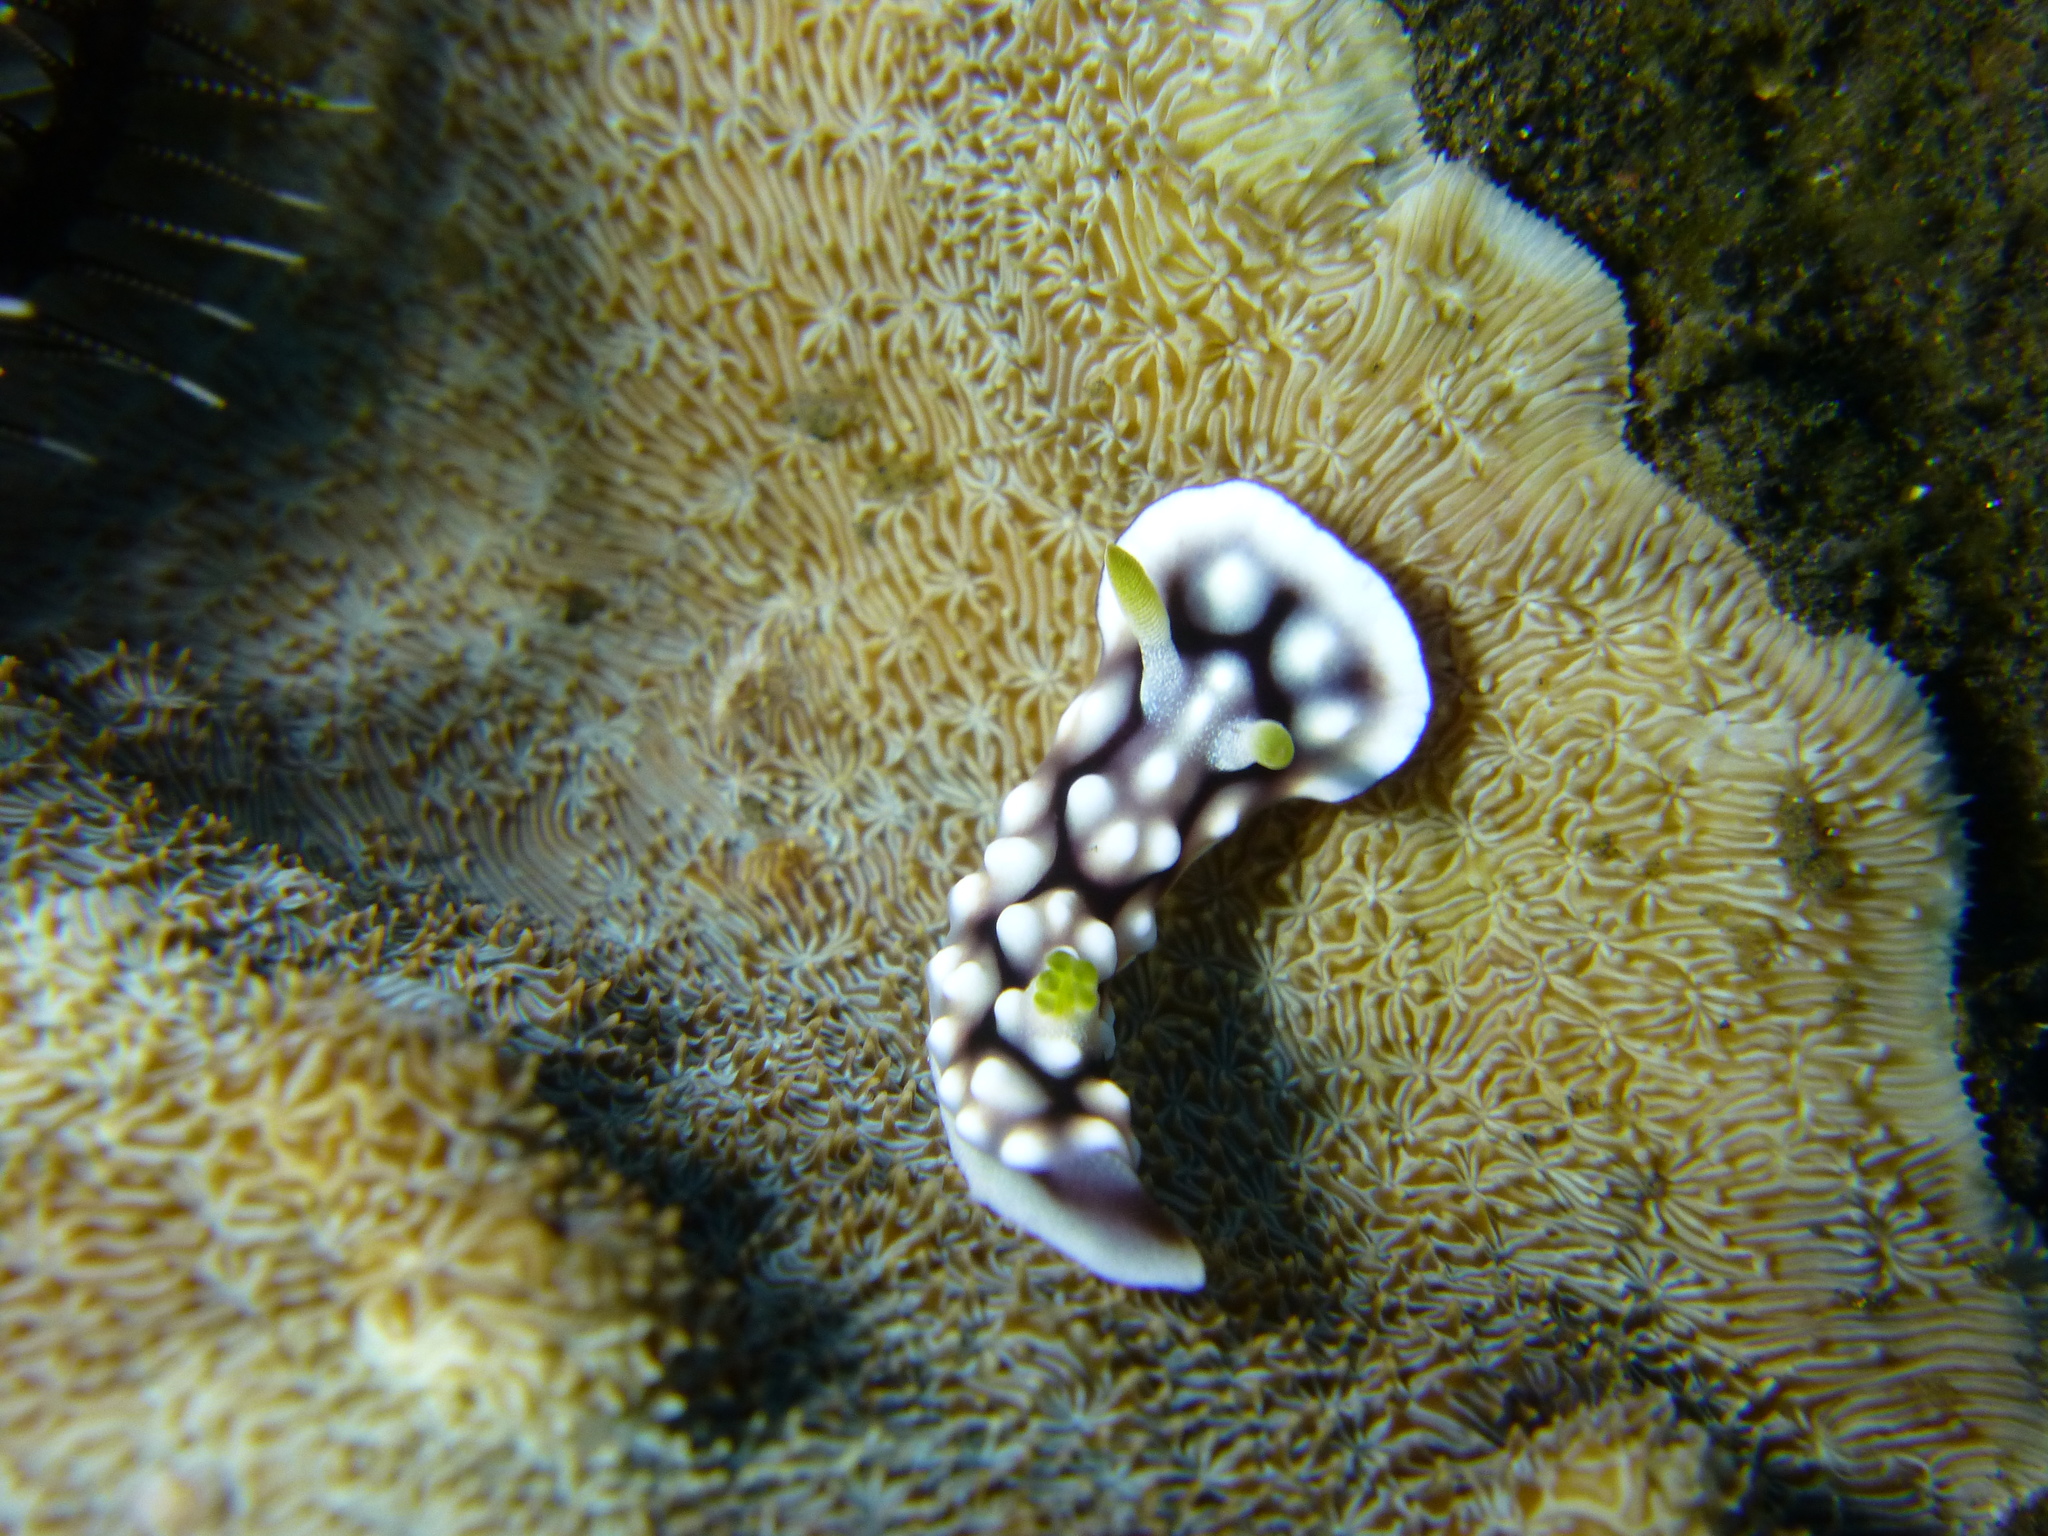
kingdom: Animalia
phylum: Mollusca
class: Gastropoda
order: Nudibranchia
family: Chromodorididae
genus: Goniobranchus
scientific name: Goniobranchus geometricus
